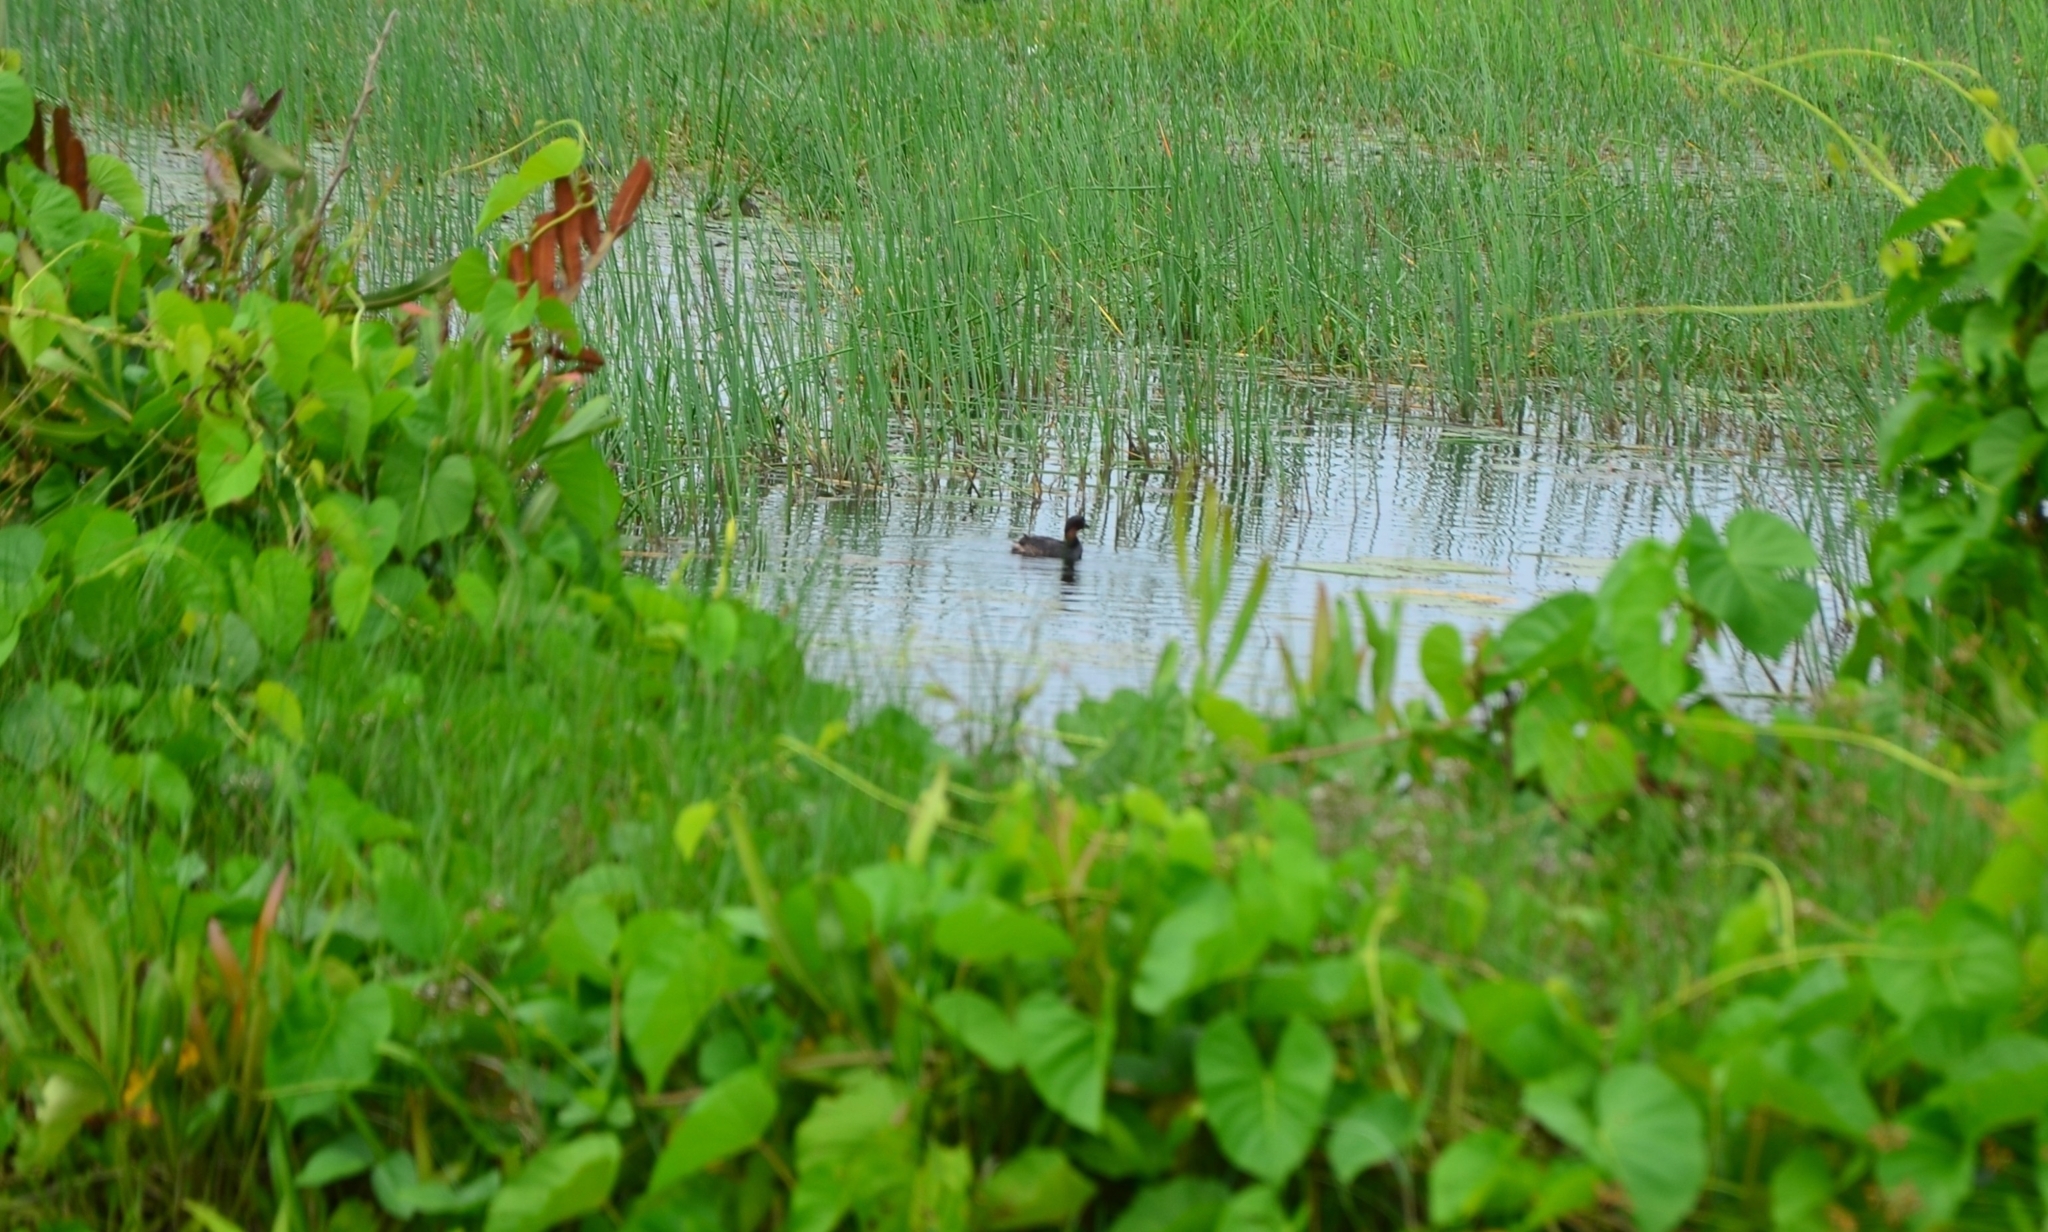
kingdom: Animalia
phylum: Chordata
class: Aves
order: Podicipediformes
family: Podicipedidae
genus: Tachybaptus
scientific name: Tachybaptus ruficollis
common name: Little grebe
